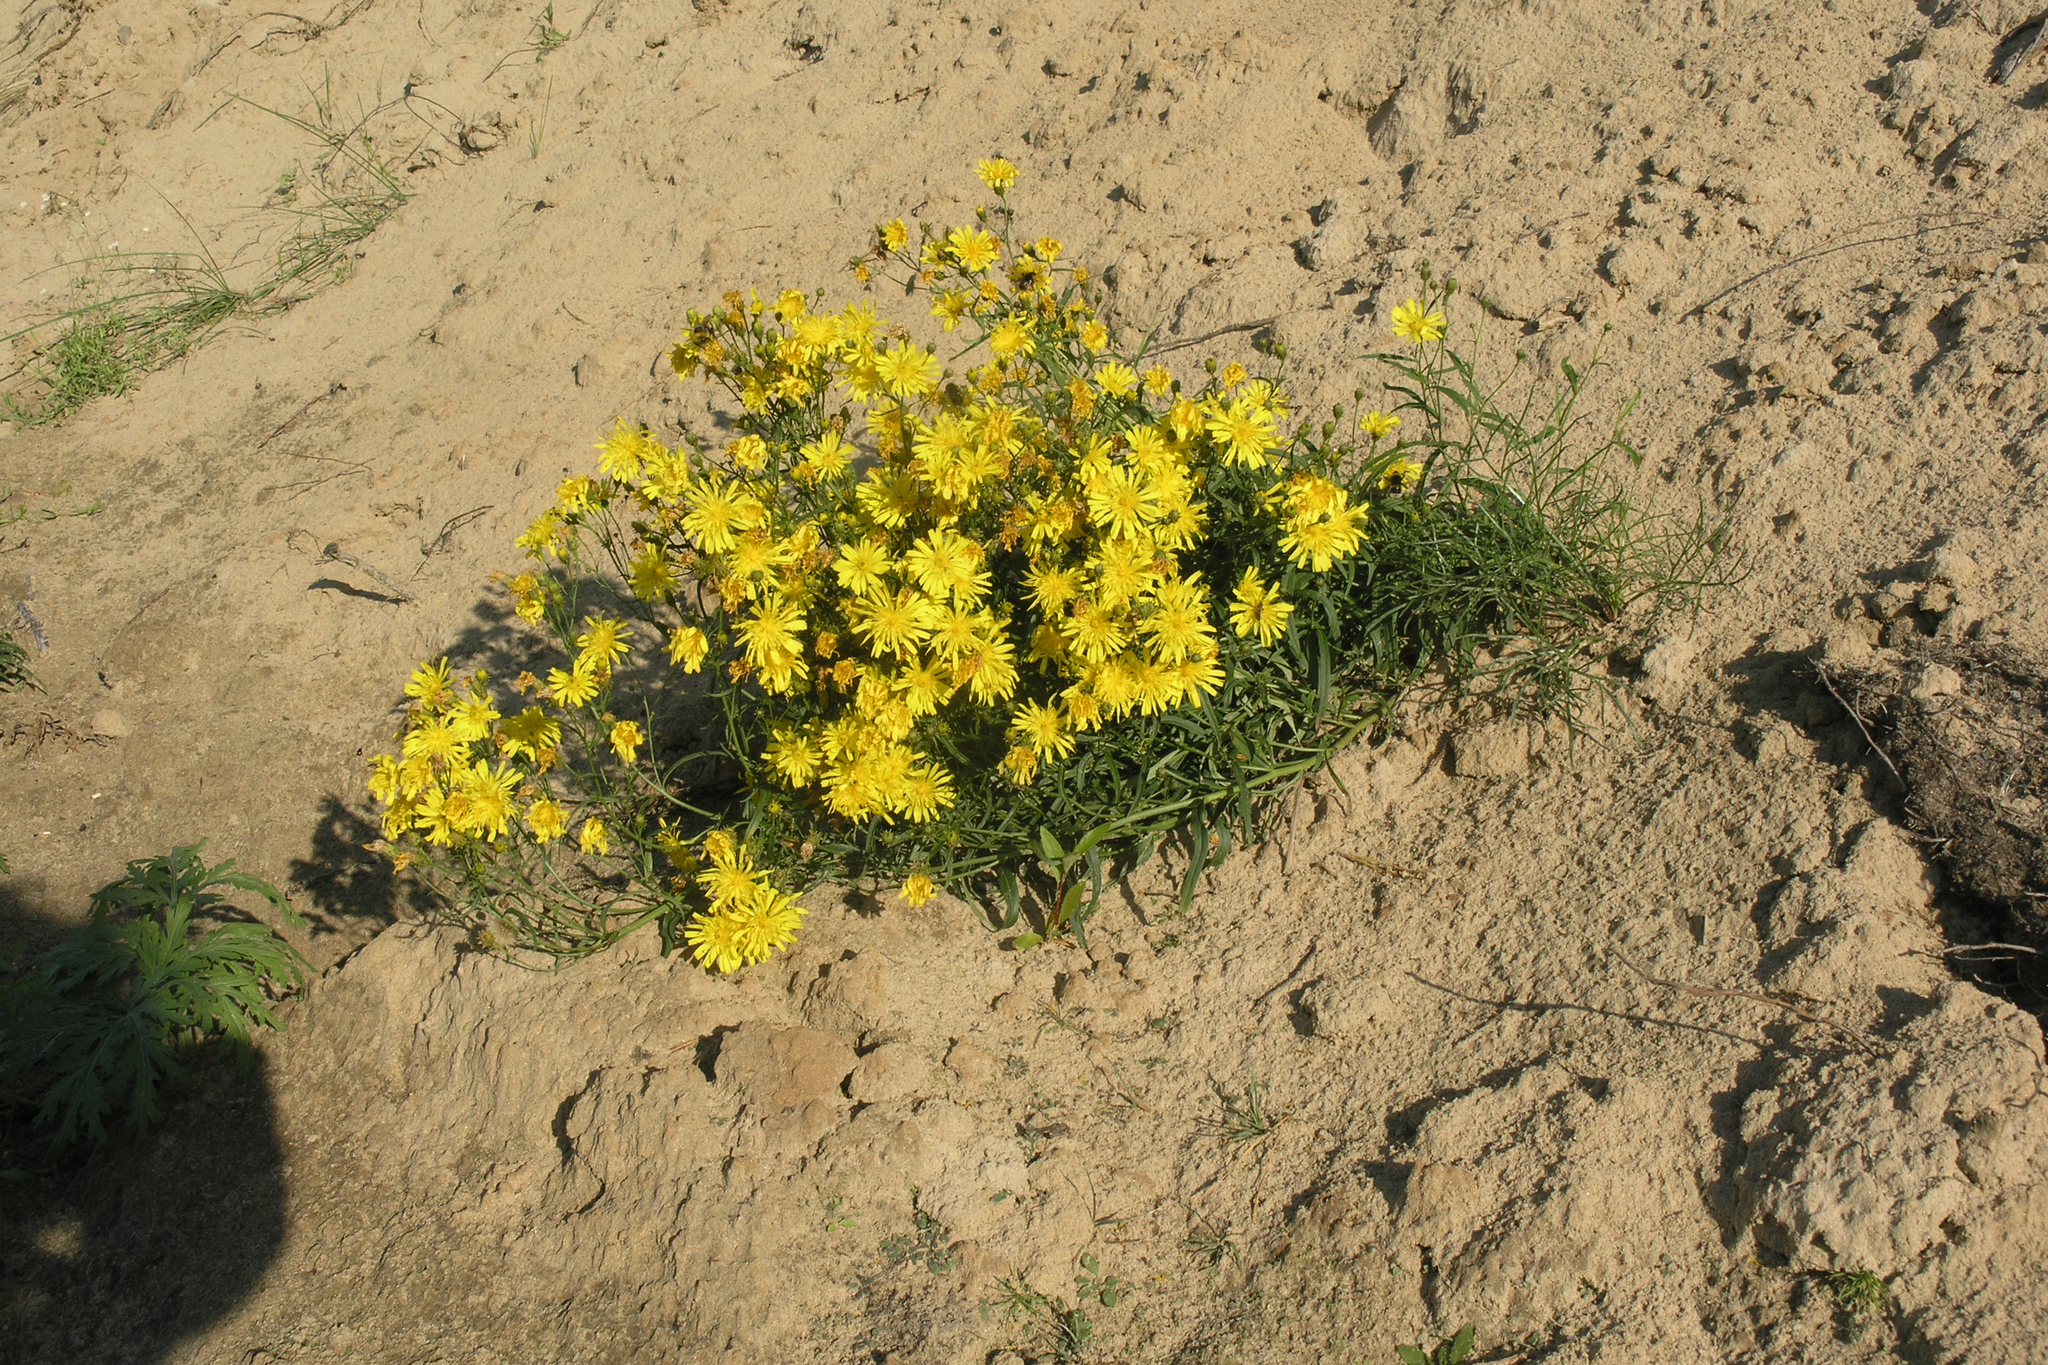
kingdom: Plantae
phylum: Tracheophyta
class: Magnoliopsida
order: Asterales
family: Asteraceae
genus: Hieracium
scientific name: Hieracium umbellatum
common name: Northern hawkweed
